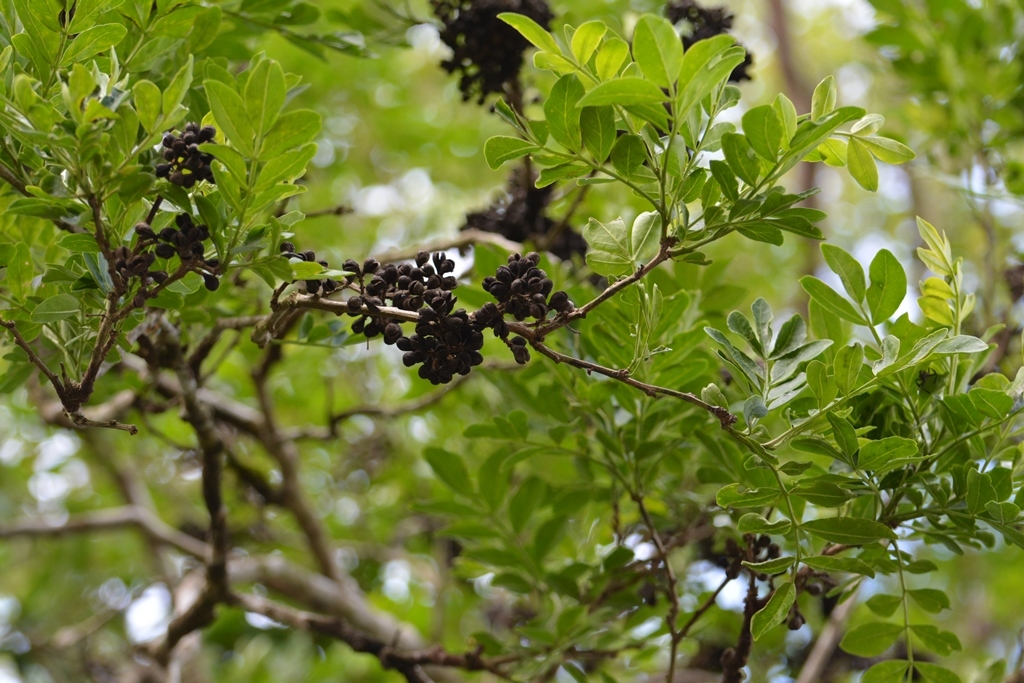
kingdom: Plantae
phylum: Tracheophyta
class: Magnoliopsida
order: Sapindales
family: Rutaceae
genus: Zanthoxylum
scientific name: Zanthoxylum quassiifolium
